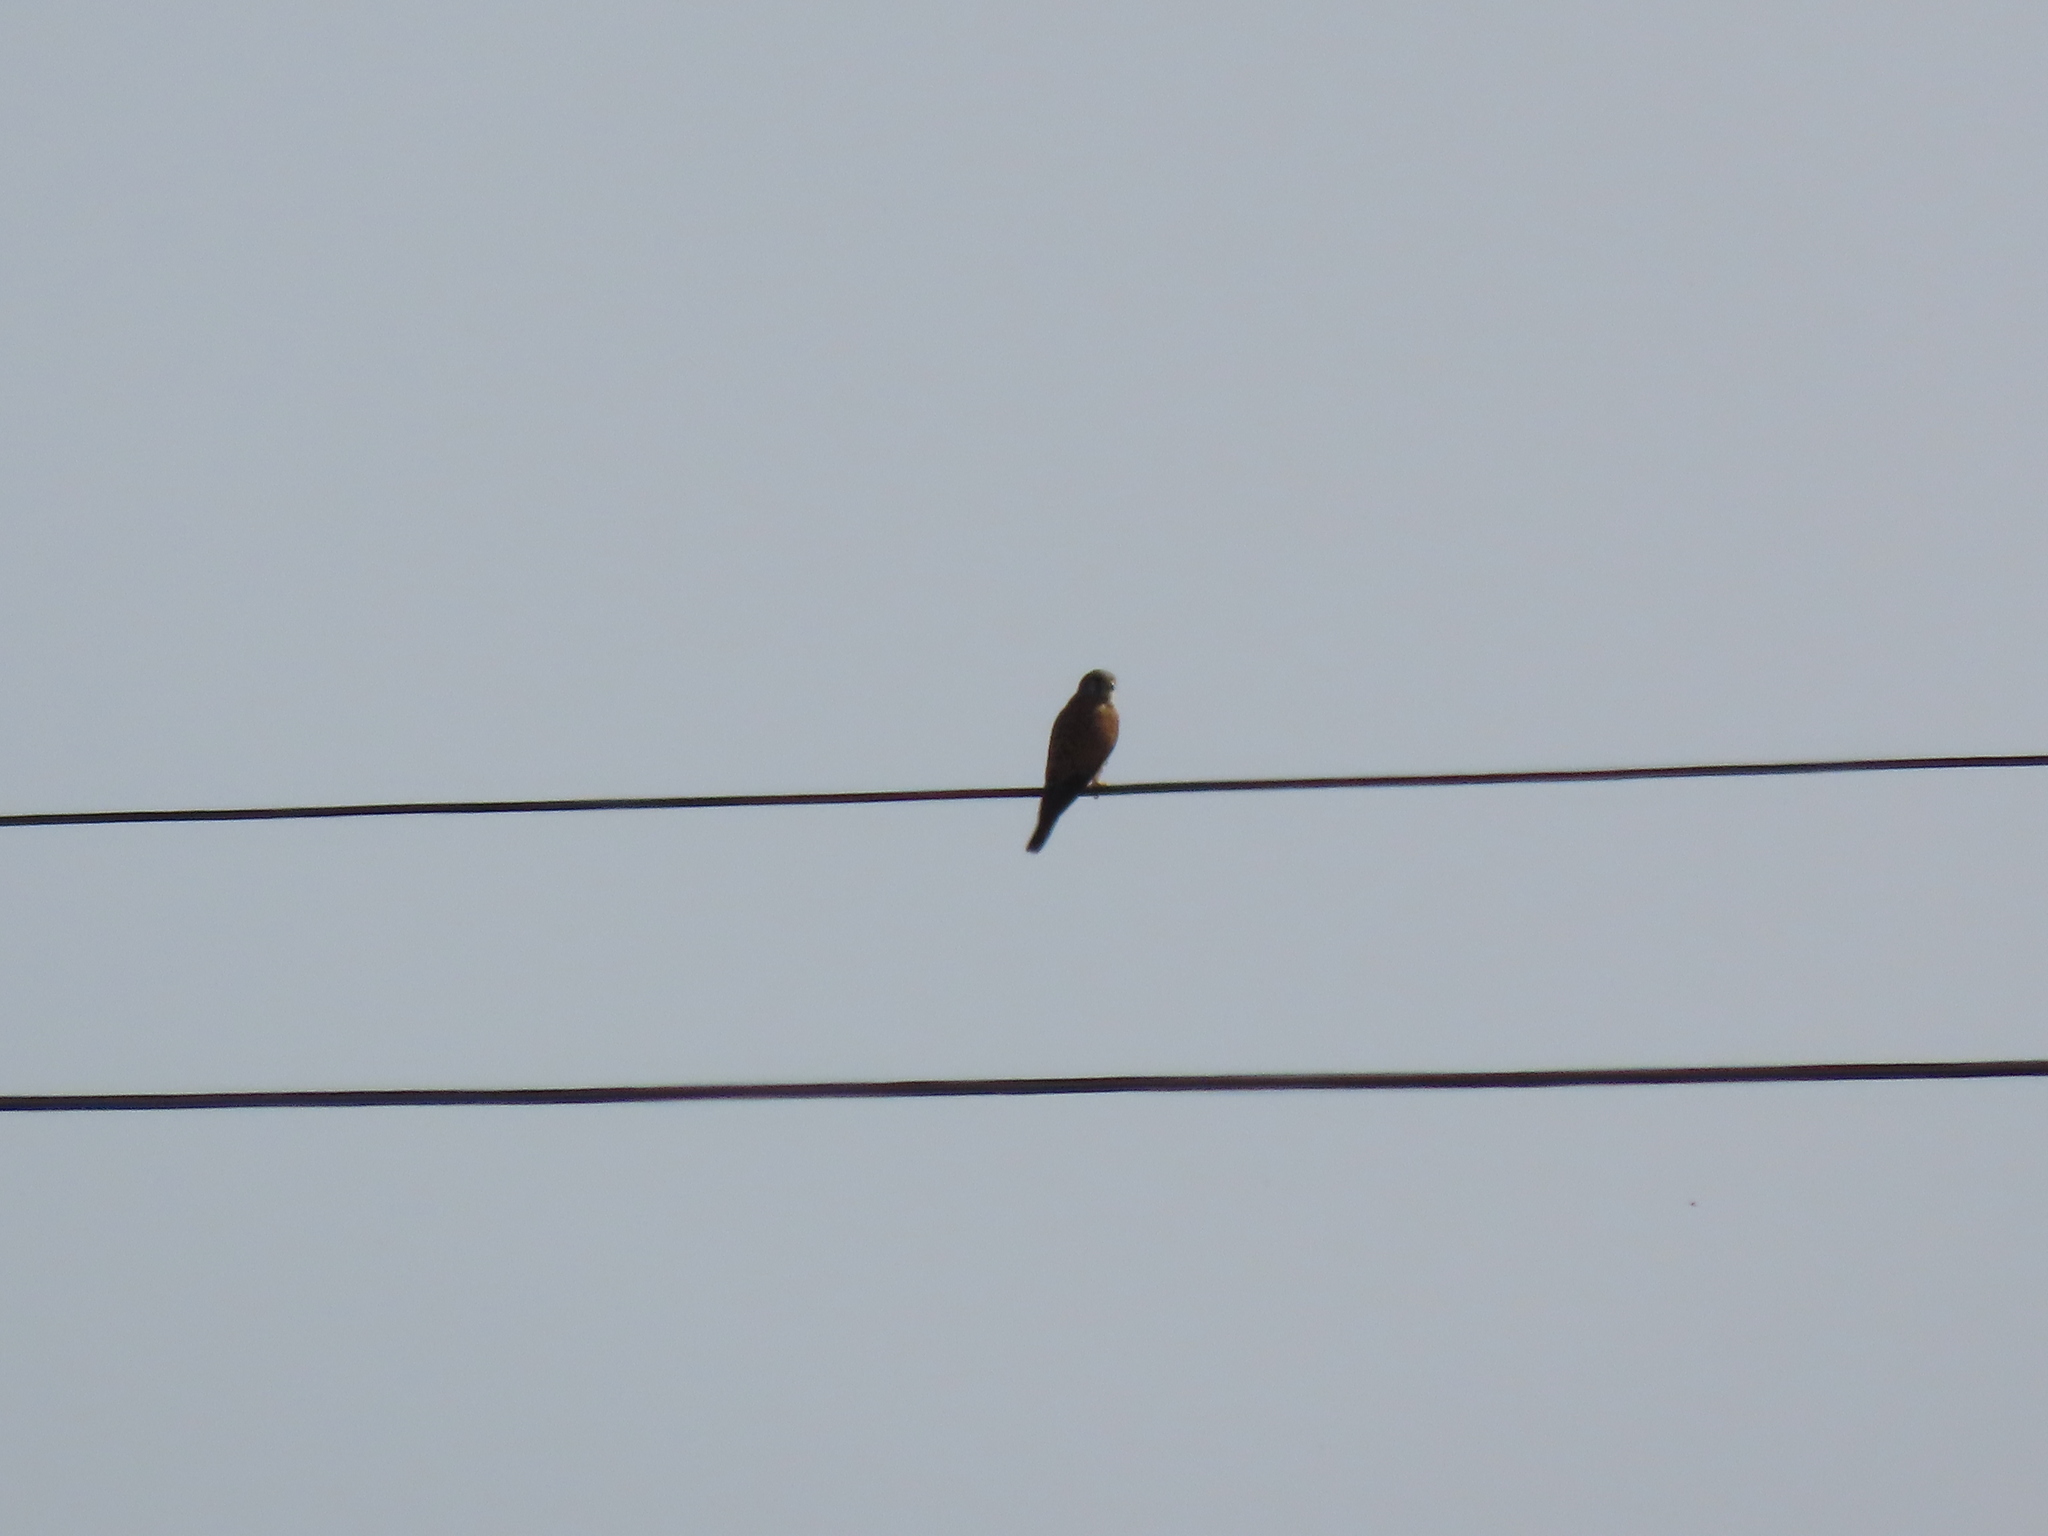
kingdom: Animalia
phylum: Chordata
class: Aves
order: Falconiformes
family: Falconidae
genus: Falco
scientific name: Falco tinnunculus
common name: Common kestrel
